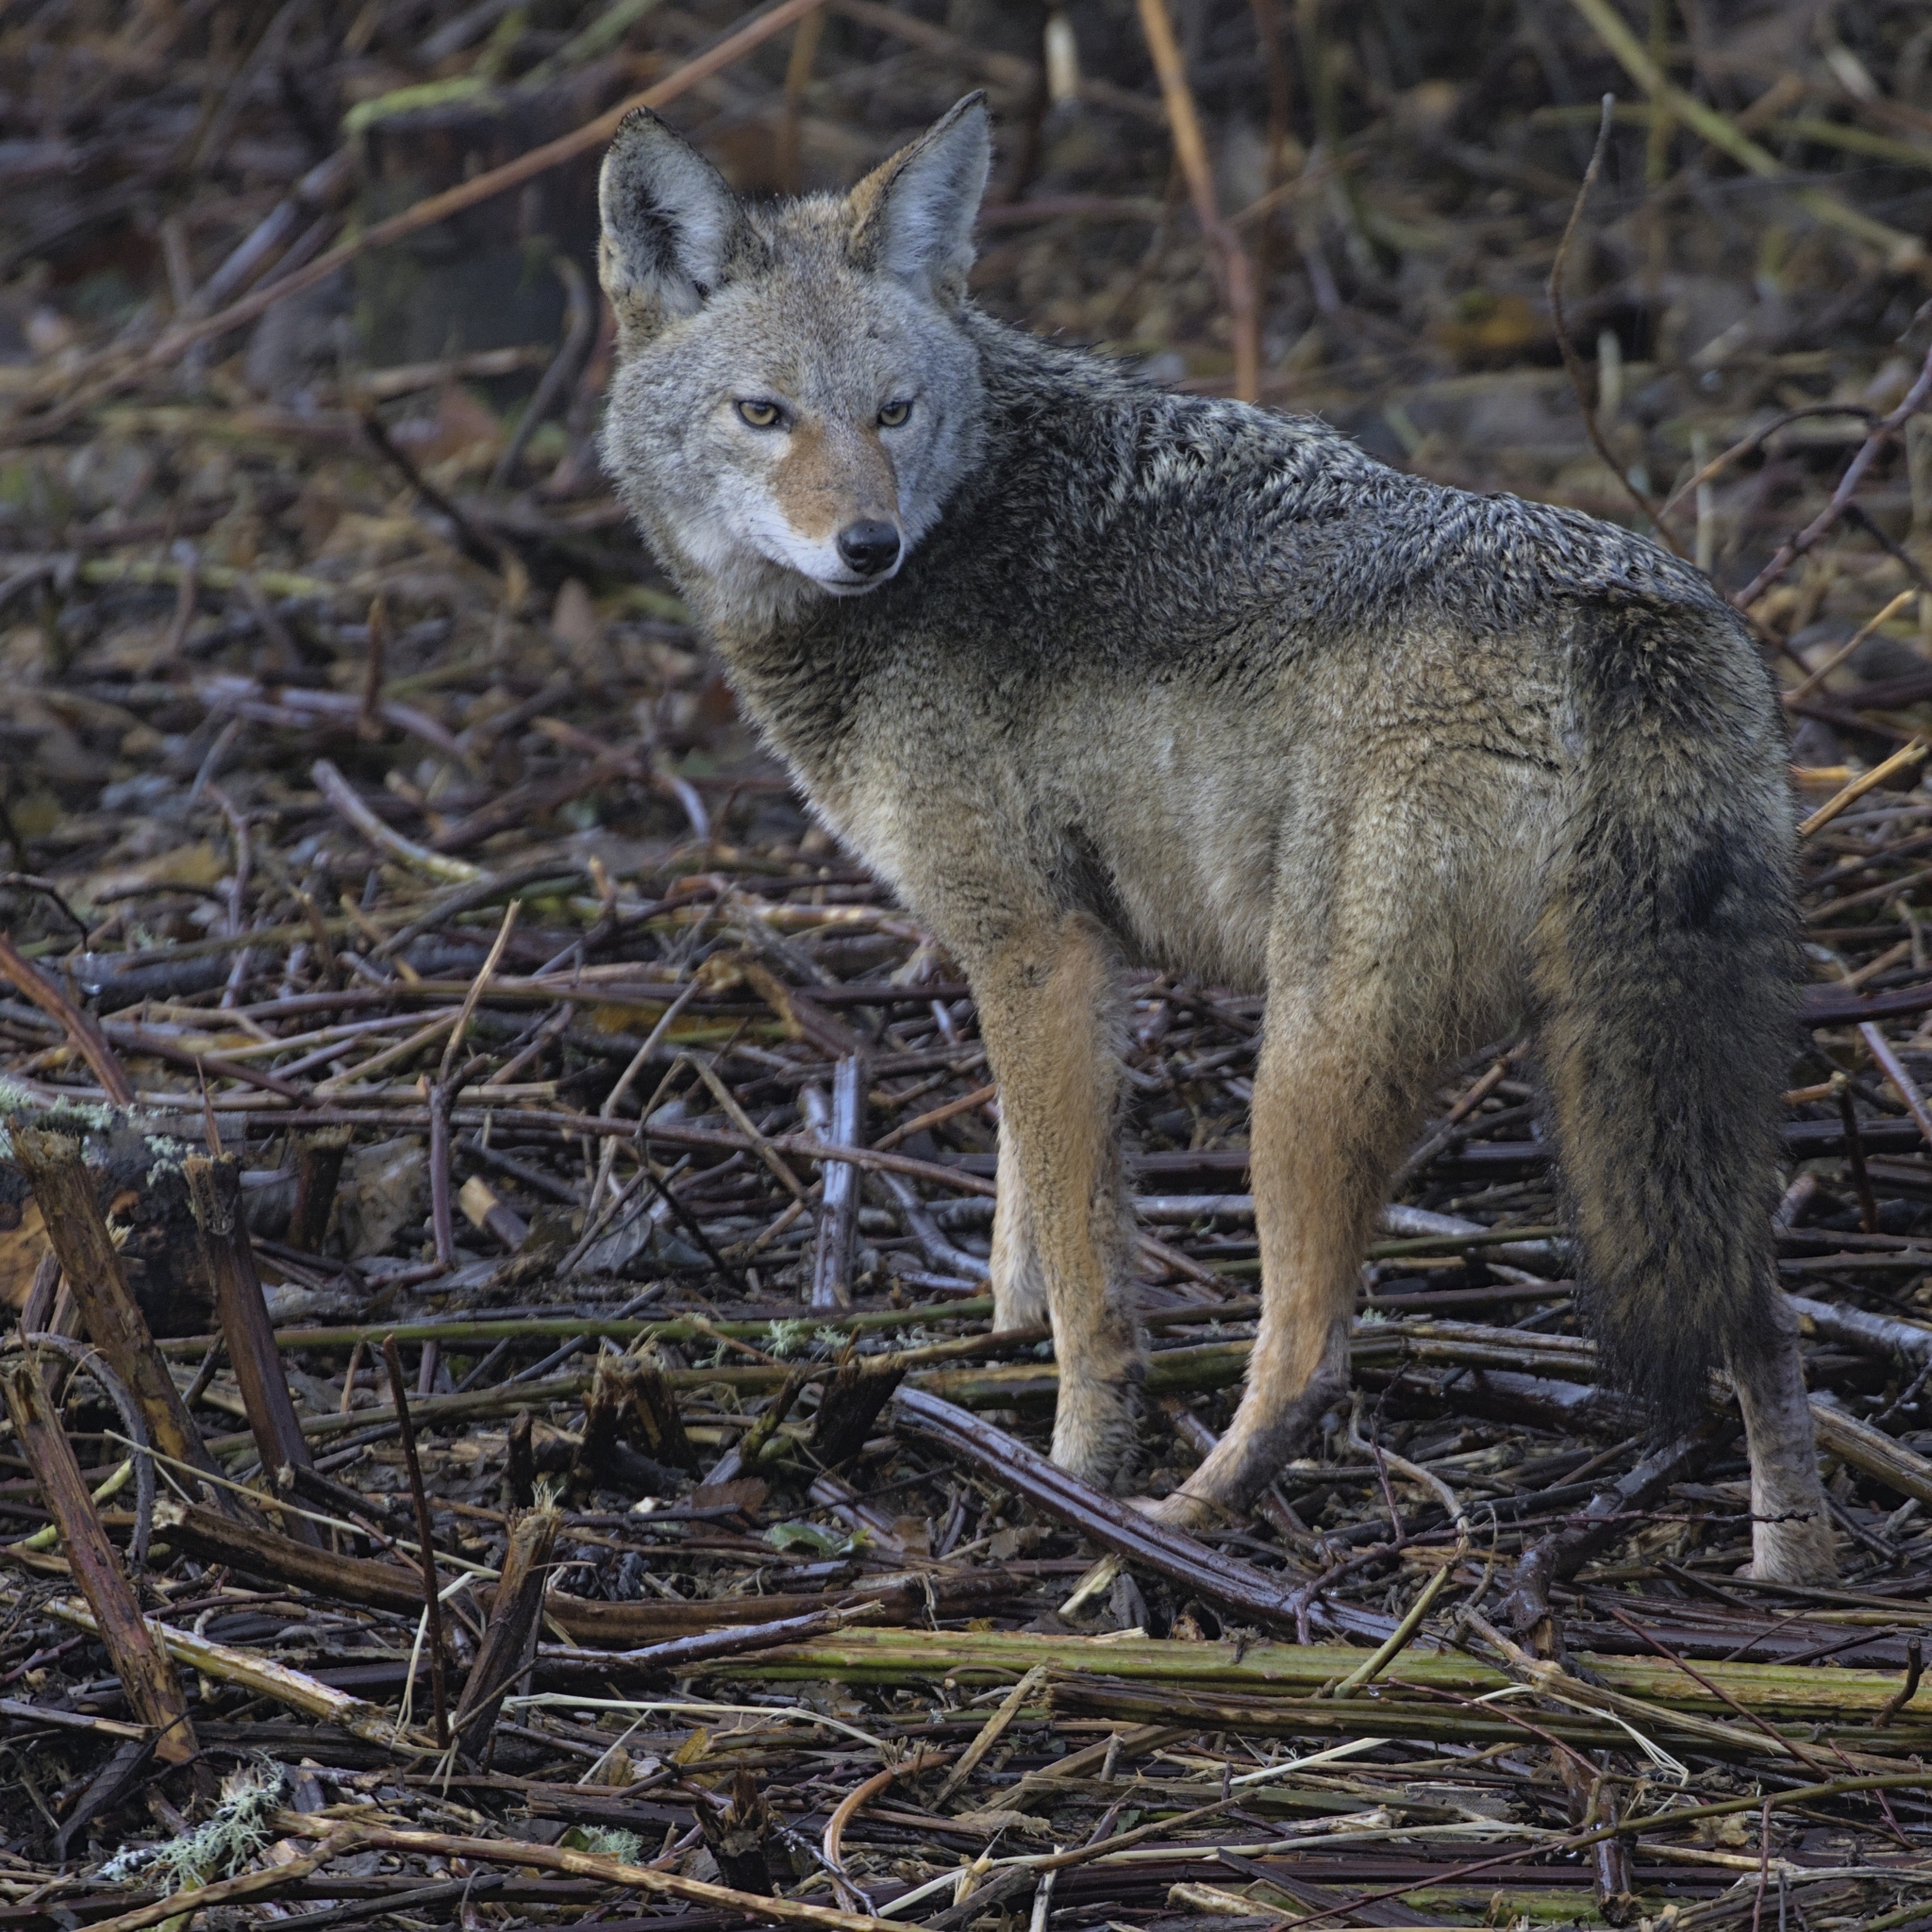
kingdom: Animalia
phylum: Chordata
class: Mammalia
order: Carnivora
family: Canidae
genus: Canis
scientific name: Canis latrans
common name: Coyote
